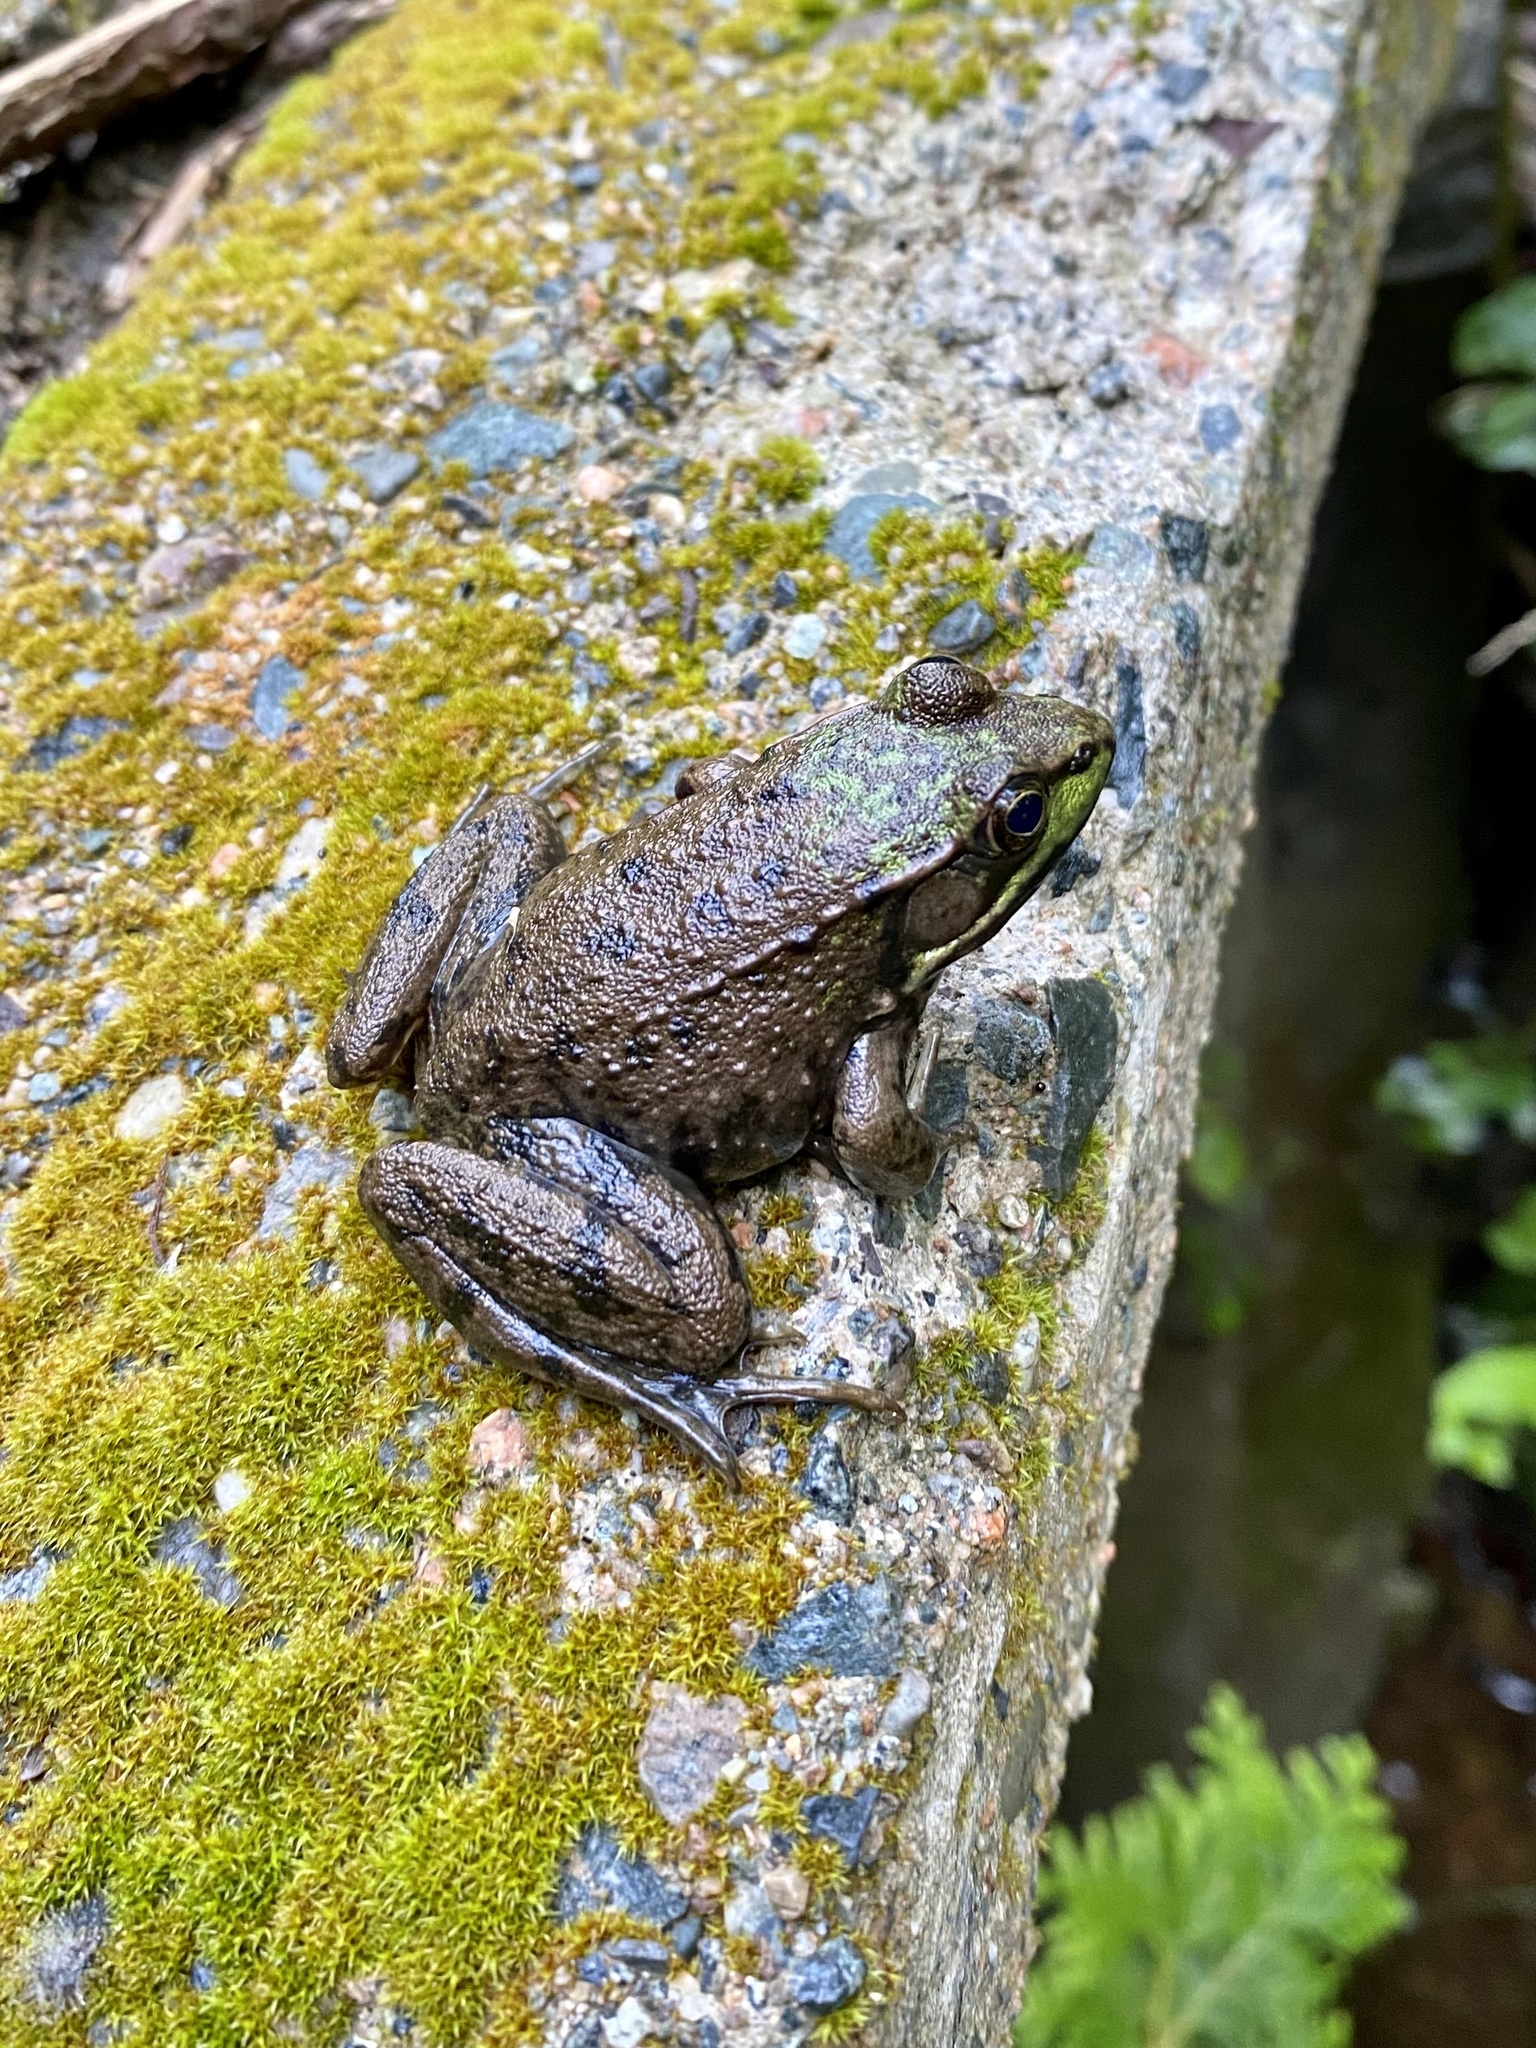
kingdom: Animalia
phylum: Chordata
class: Amphibia
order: Anura
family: Ranidae
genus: Lithobates
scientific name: Lithobates clamitans
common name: Green frog
